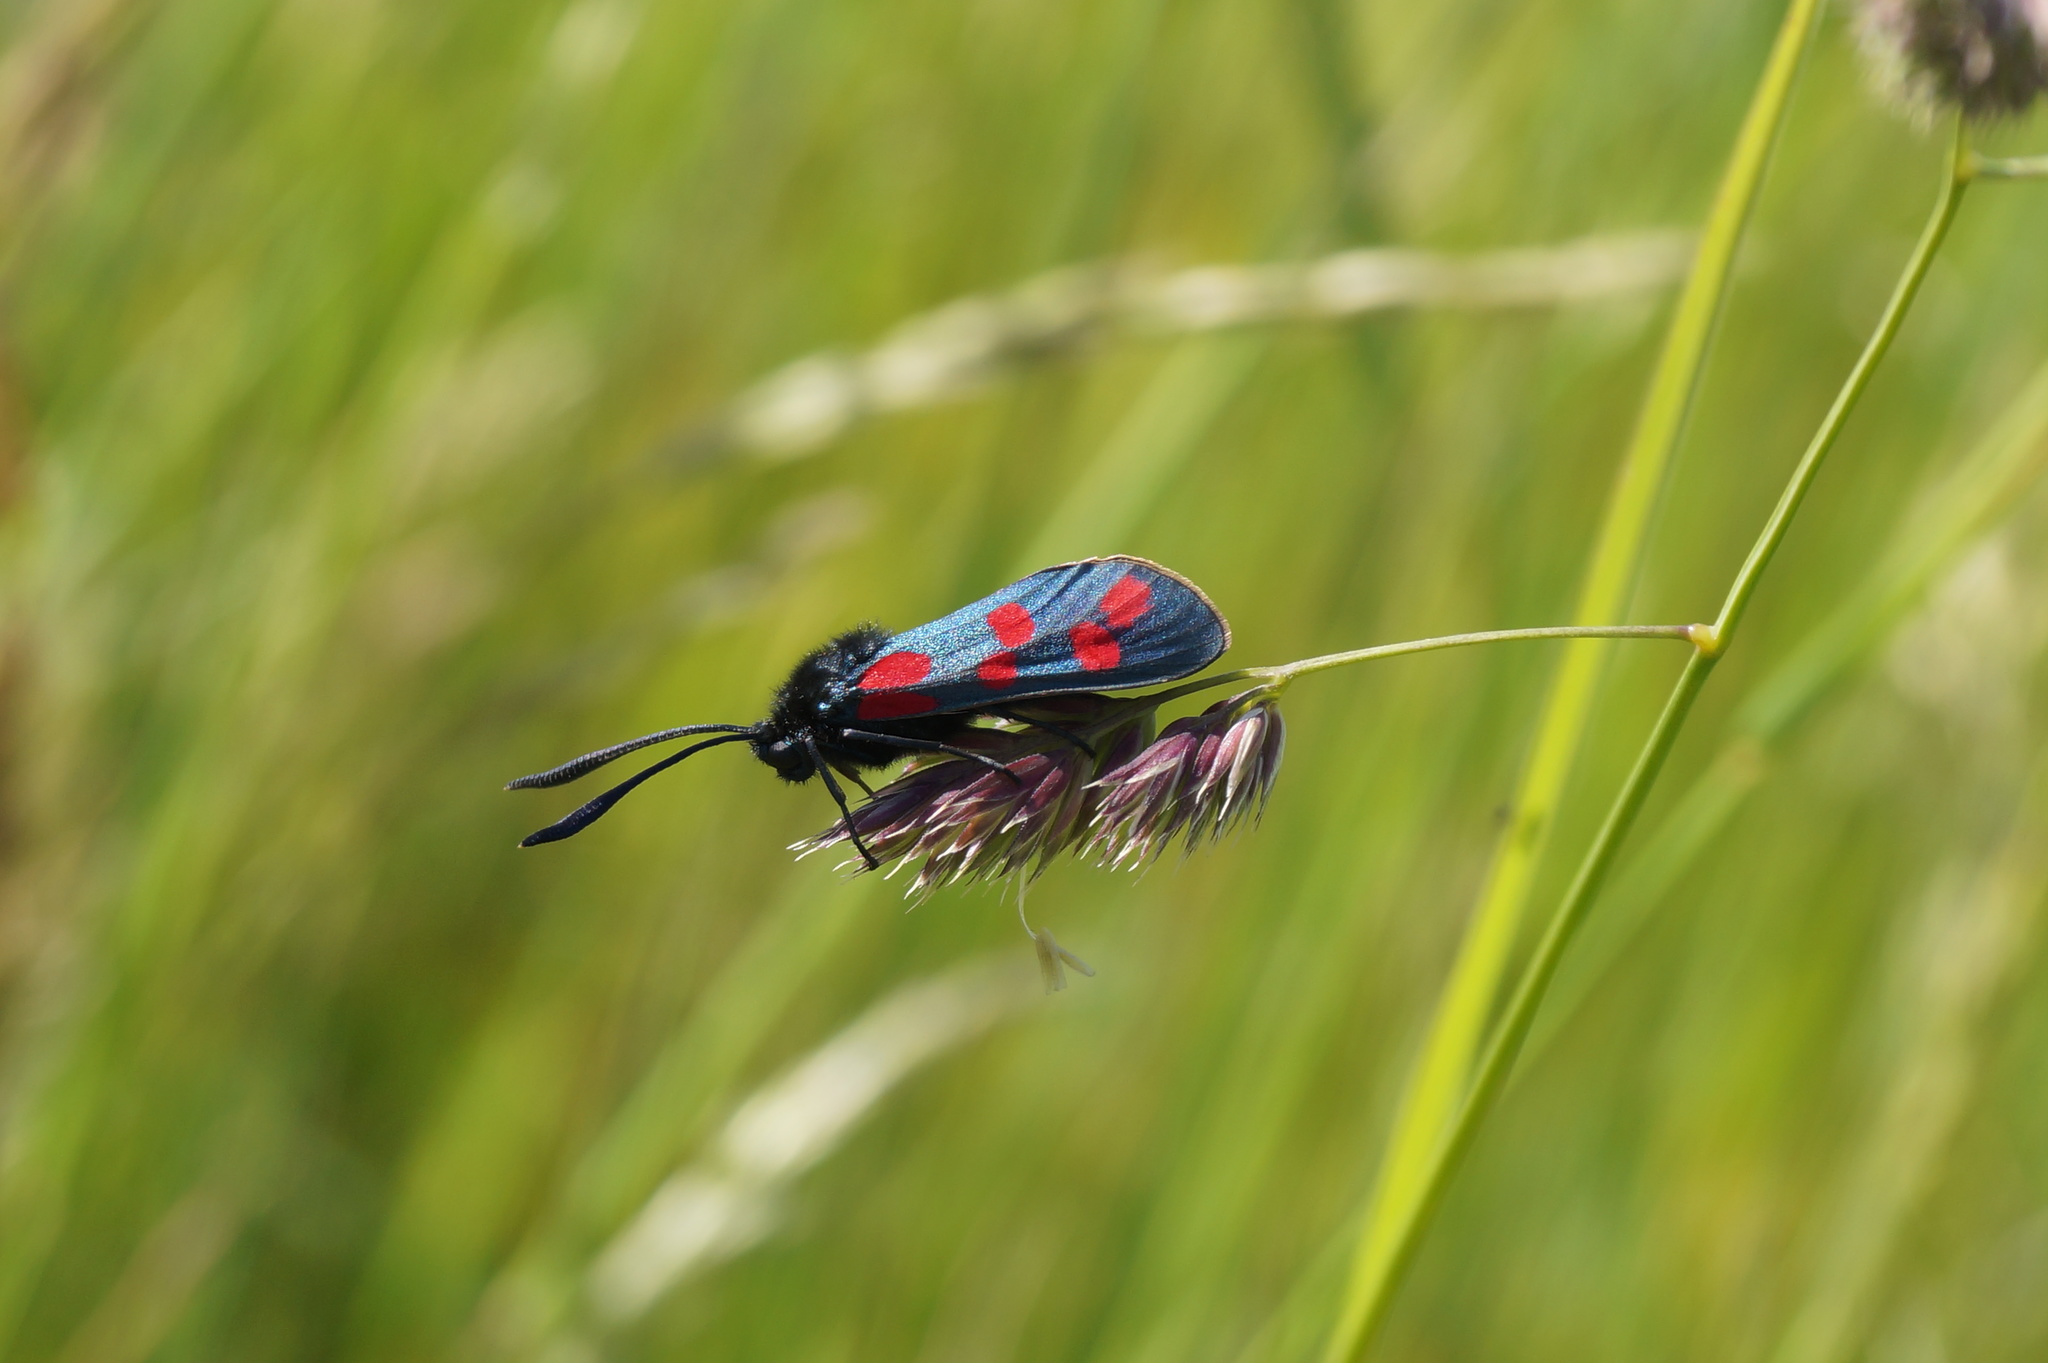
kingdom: Animalia
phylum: Arthropoda
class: Insecta
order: Lepidoptera
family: Zygaenidae
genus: Zygaena
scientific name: Zygaena filipendulae
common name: Six-spot burnet
